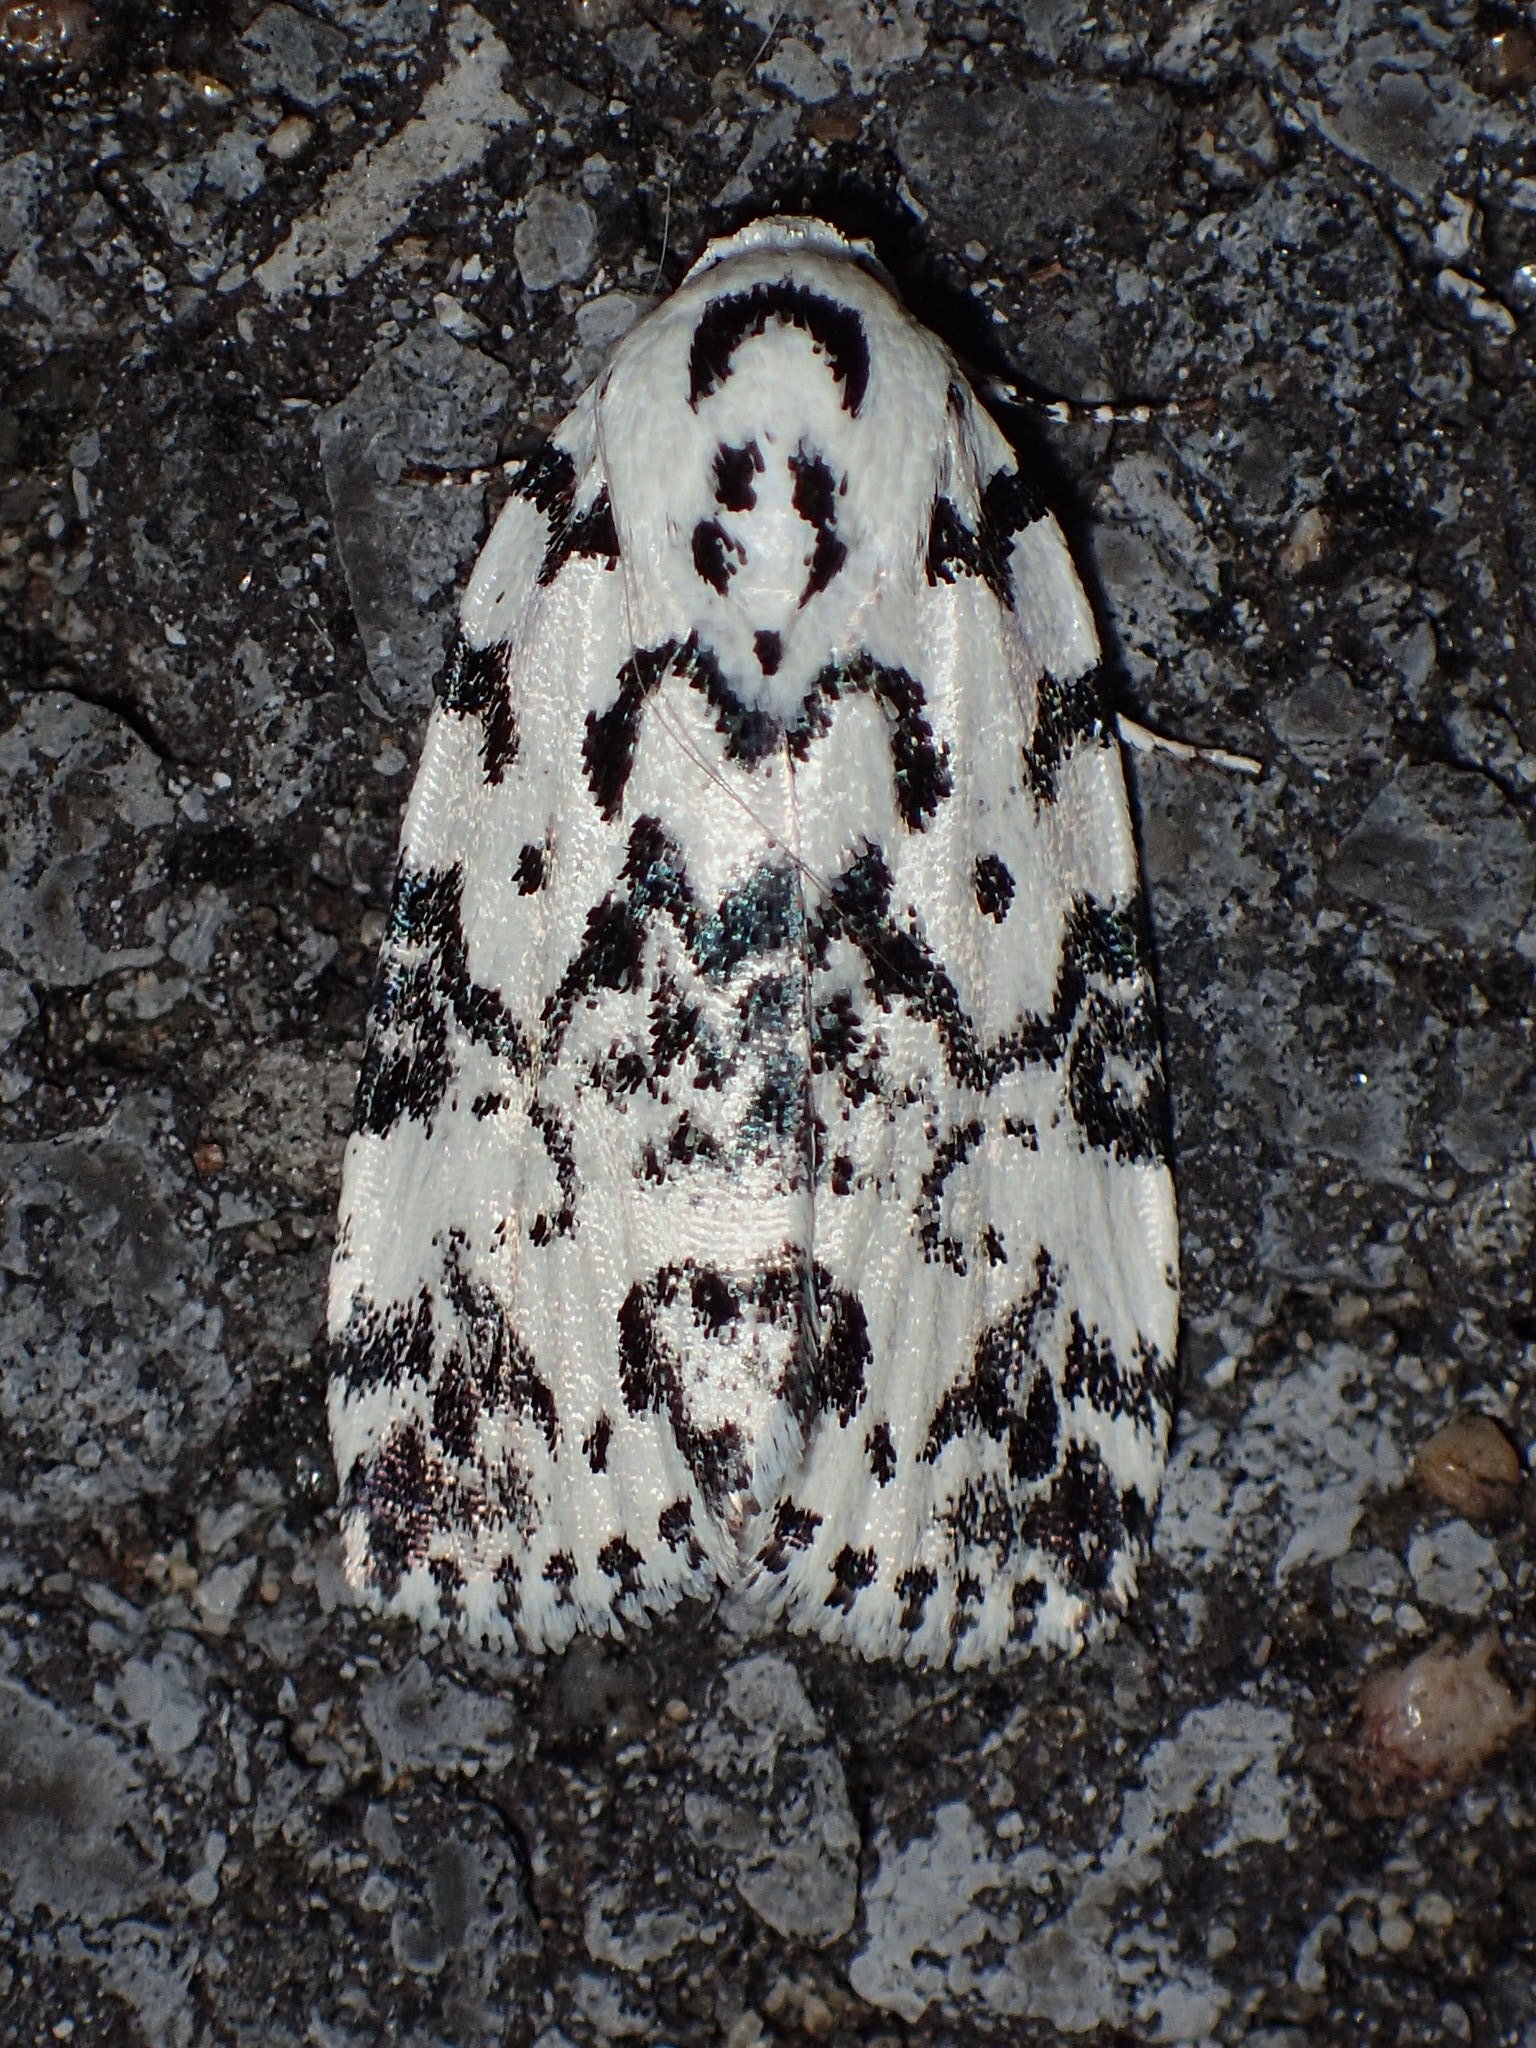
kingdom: Animalia
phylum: Arthropoda
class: Insecta
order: Lepidoptera
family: Noctuidae
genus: Polygrammate
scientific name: Polygrammate hebraeicum
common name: Hebrew moth
